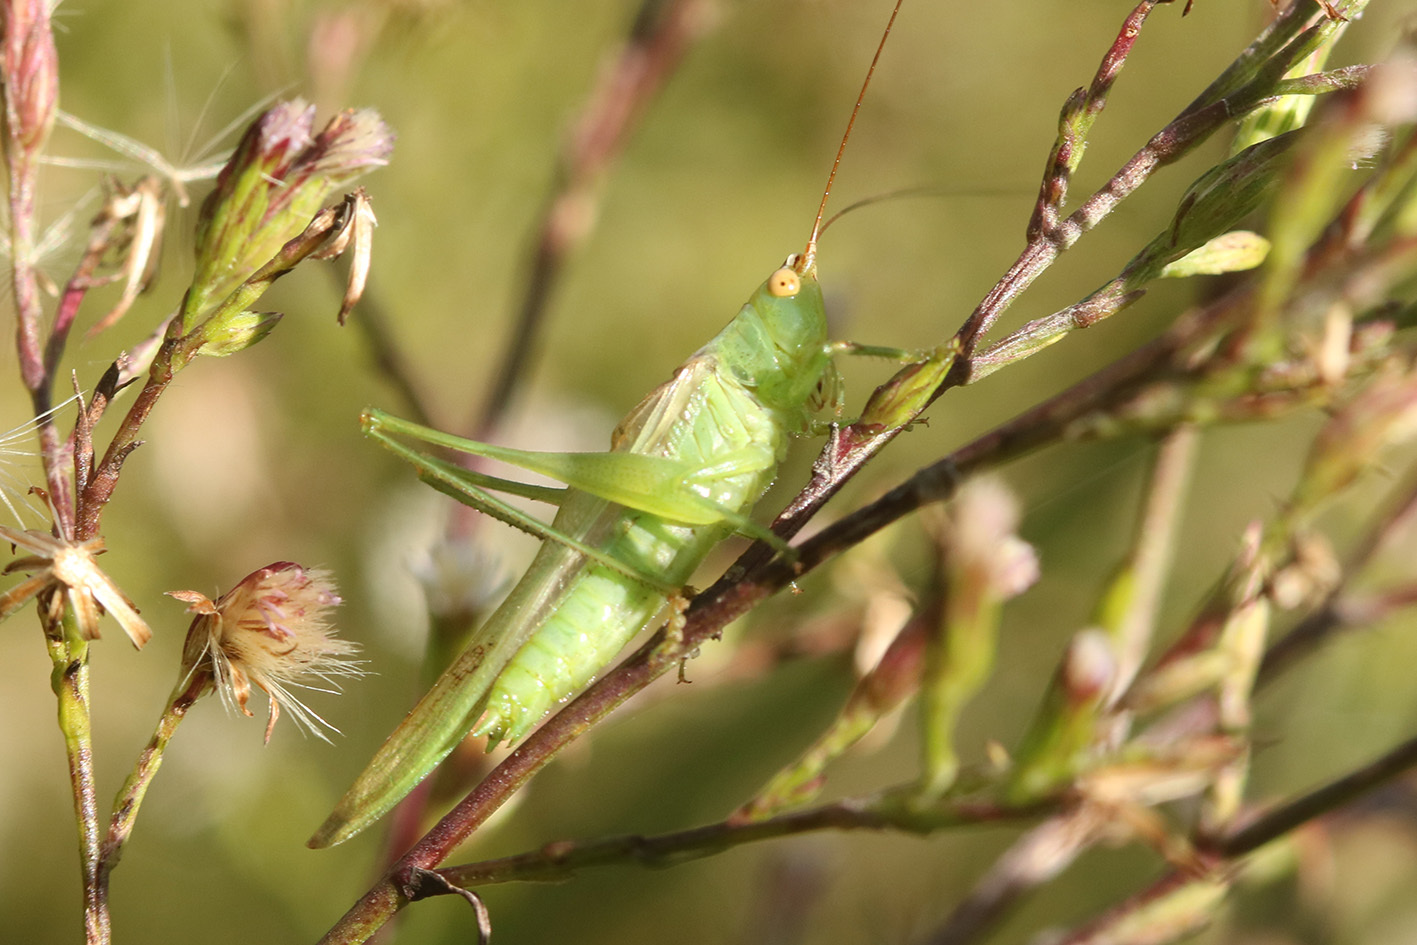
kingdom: Animalia
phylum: Arthropoda
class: Insecta
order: Orthoptera
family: Tettigoniidae
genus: Conocephalus
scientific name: Conocephalus longipes
